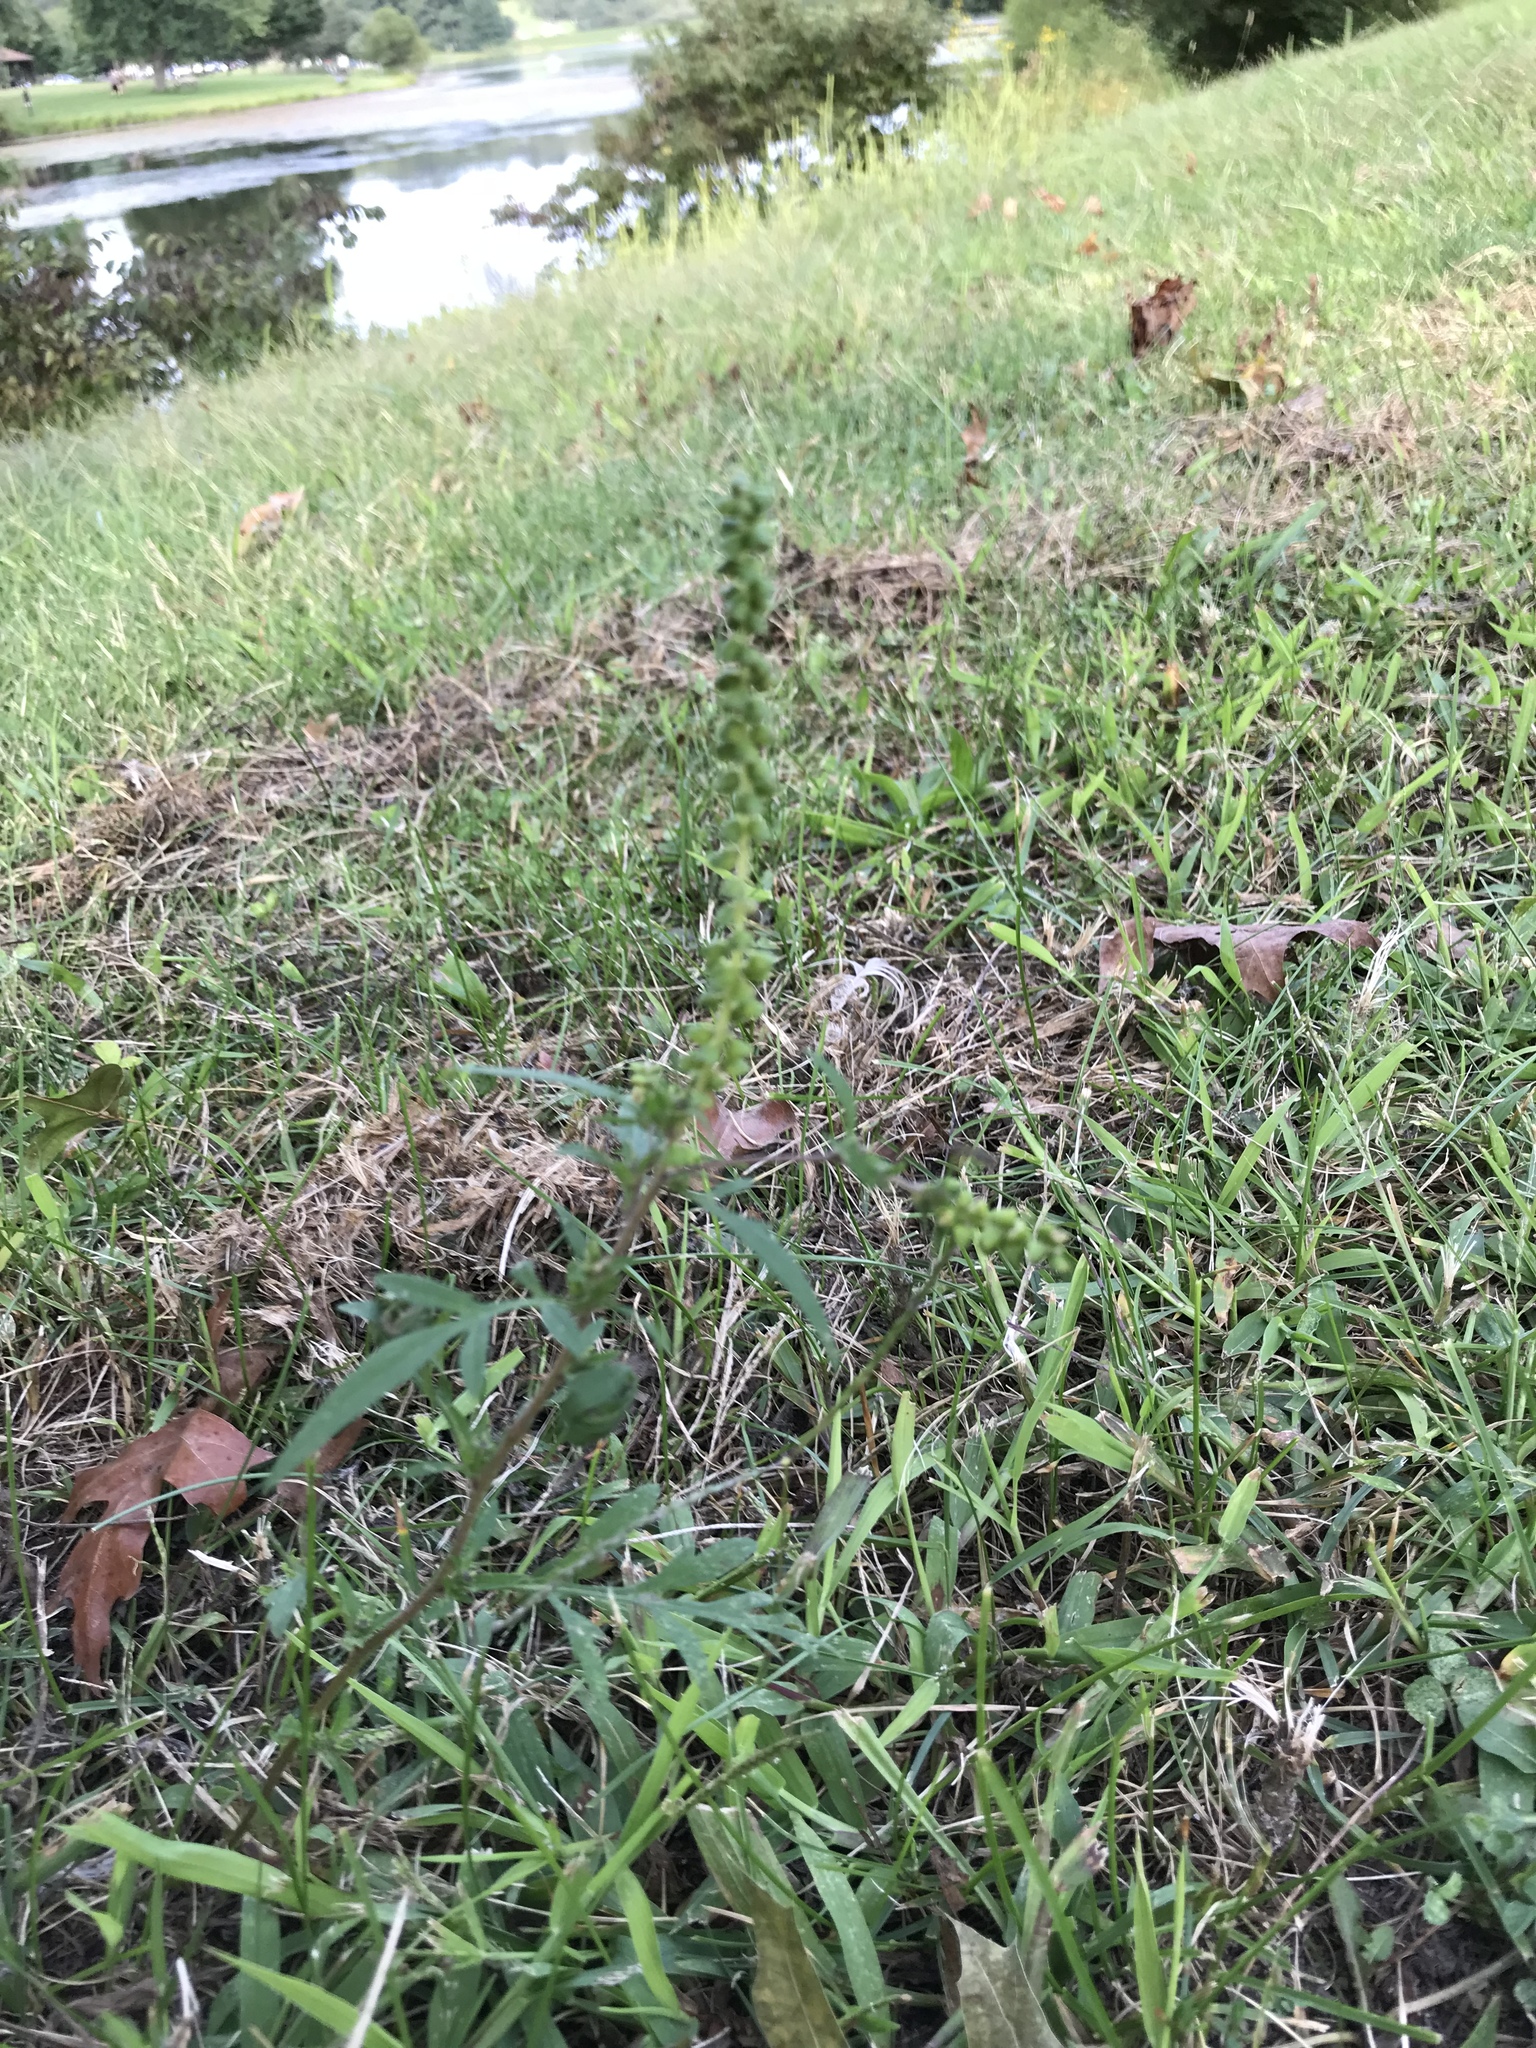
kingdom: Plantae
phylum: Tracheophyta
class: Magnoliopsida
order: Asterales
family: Asteraceae
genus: Ambrosia
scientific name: Ambrosia artemisiifolia
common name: Annual ragweed
